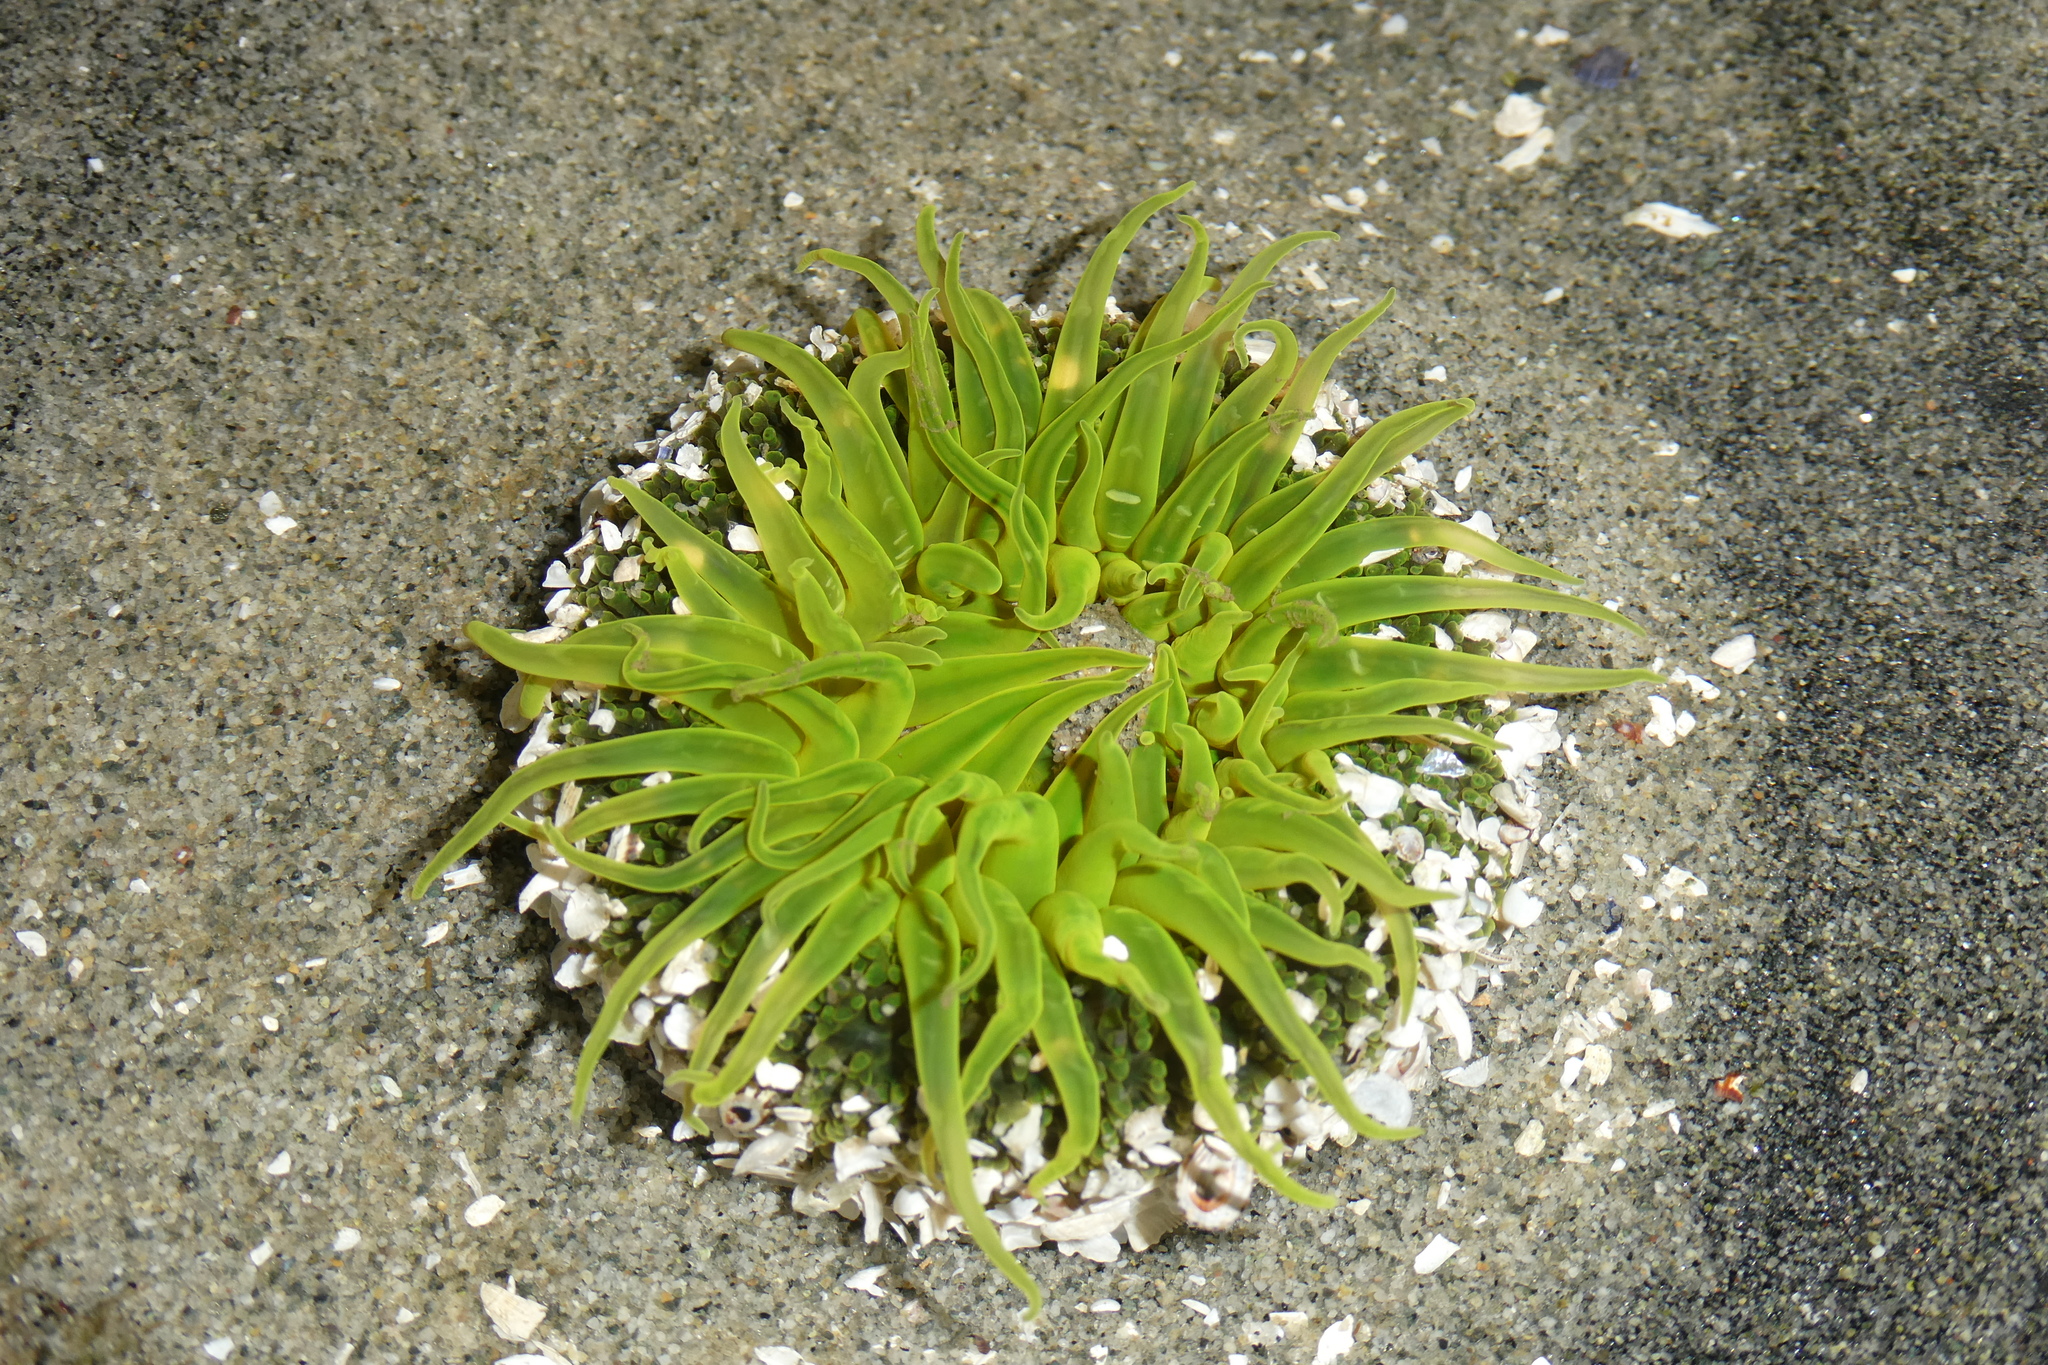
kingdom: Animalia
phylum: Cnidaria
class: Anthozoa
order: Actiniaria
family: Actiniidae
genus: Anthopleura
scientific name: Anthopleura artemisia
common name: Buried sea anemone
